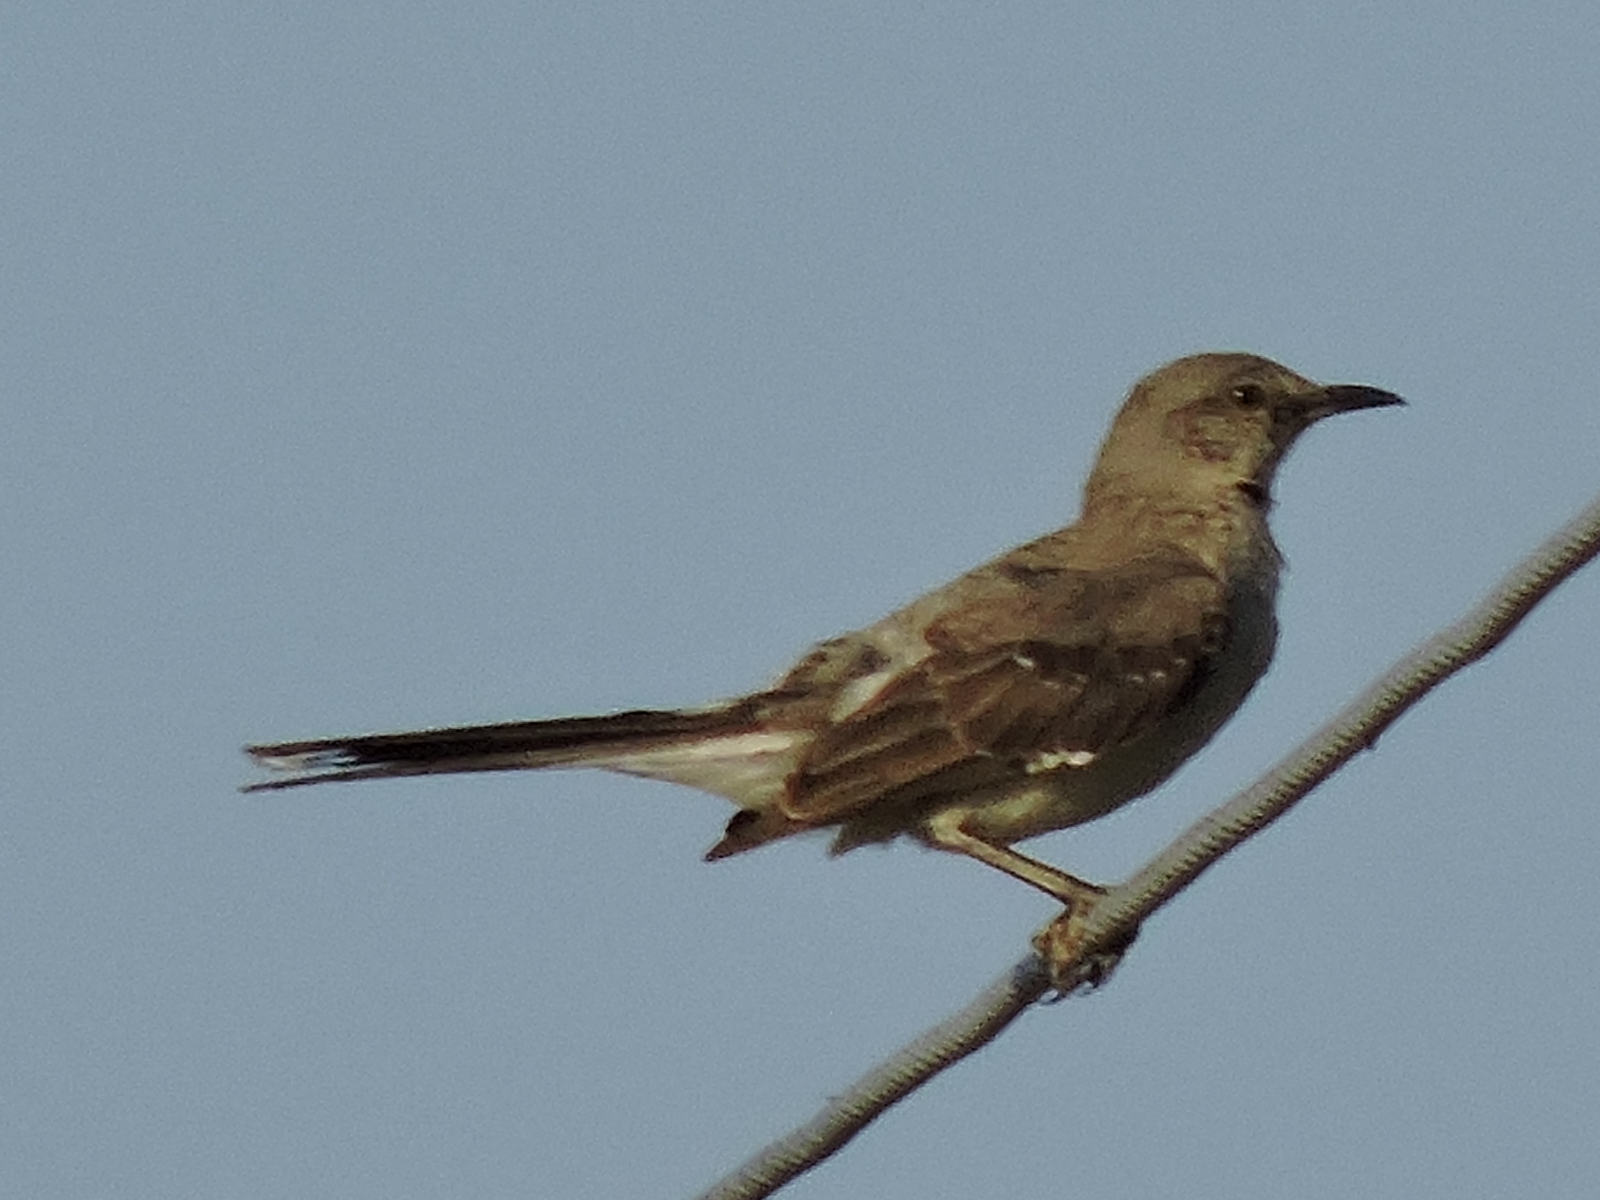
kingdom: Animalia
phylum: Chordata
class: Aves
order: Passeriformes
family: Mimidae
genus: Mimus
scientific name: Mimus polyglottos
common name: Northern mockingbird
